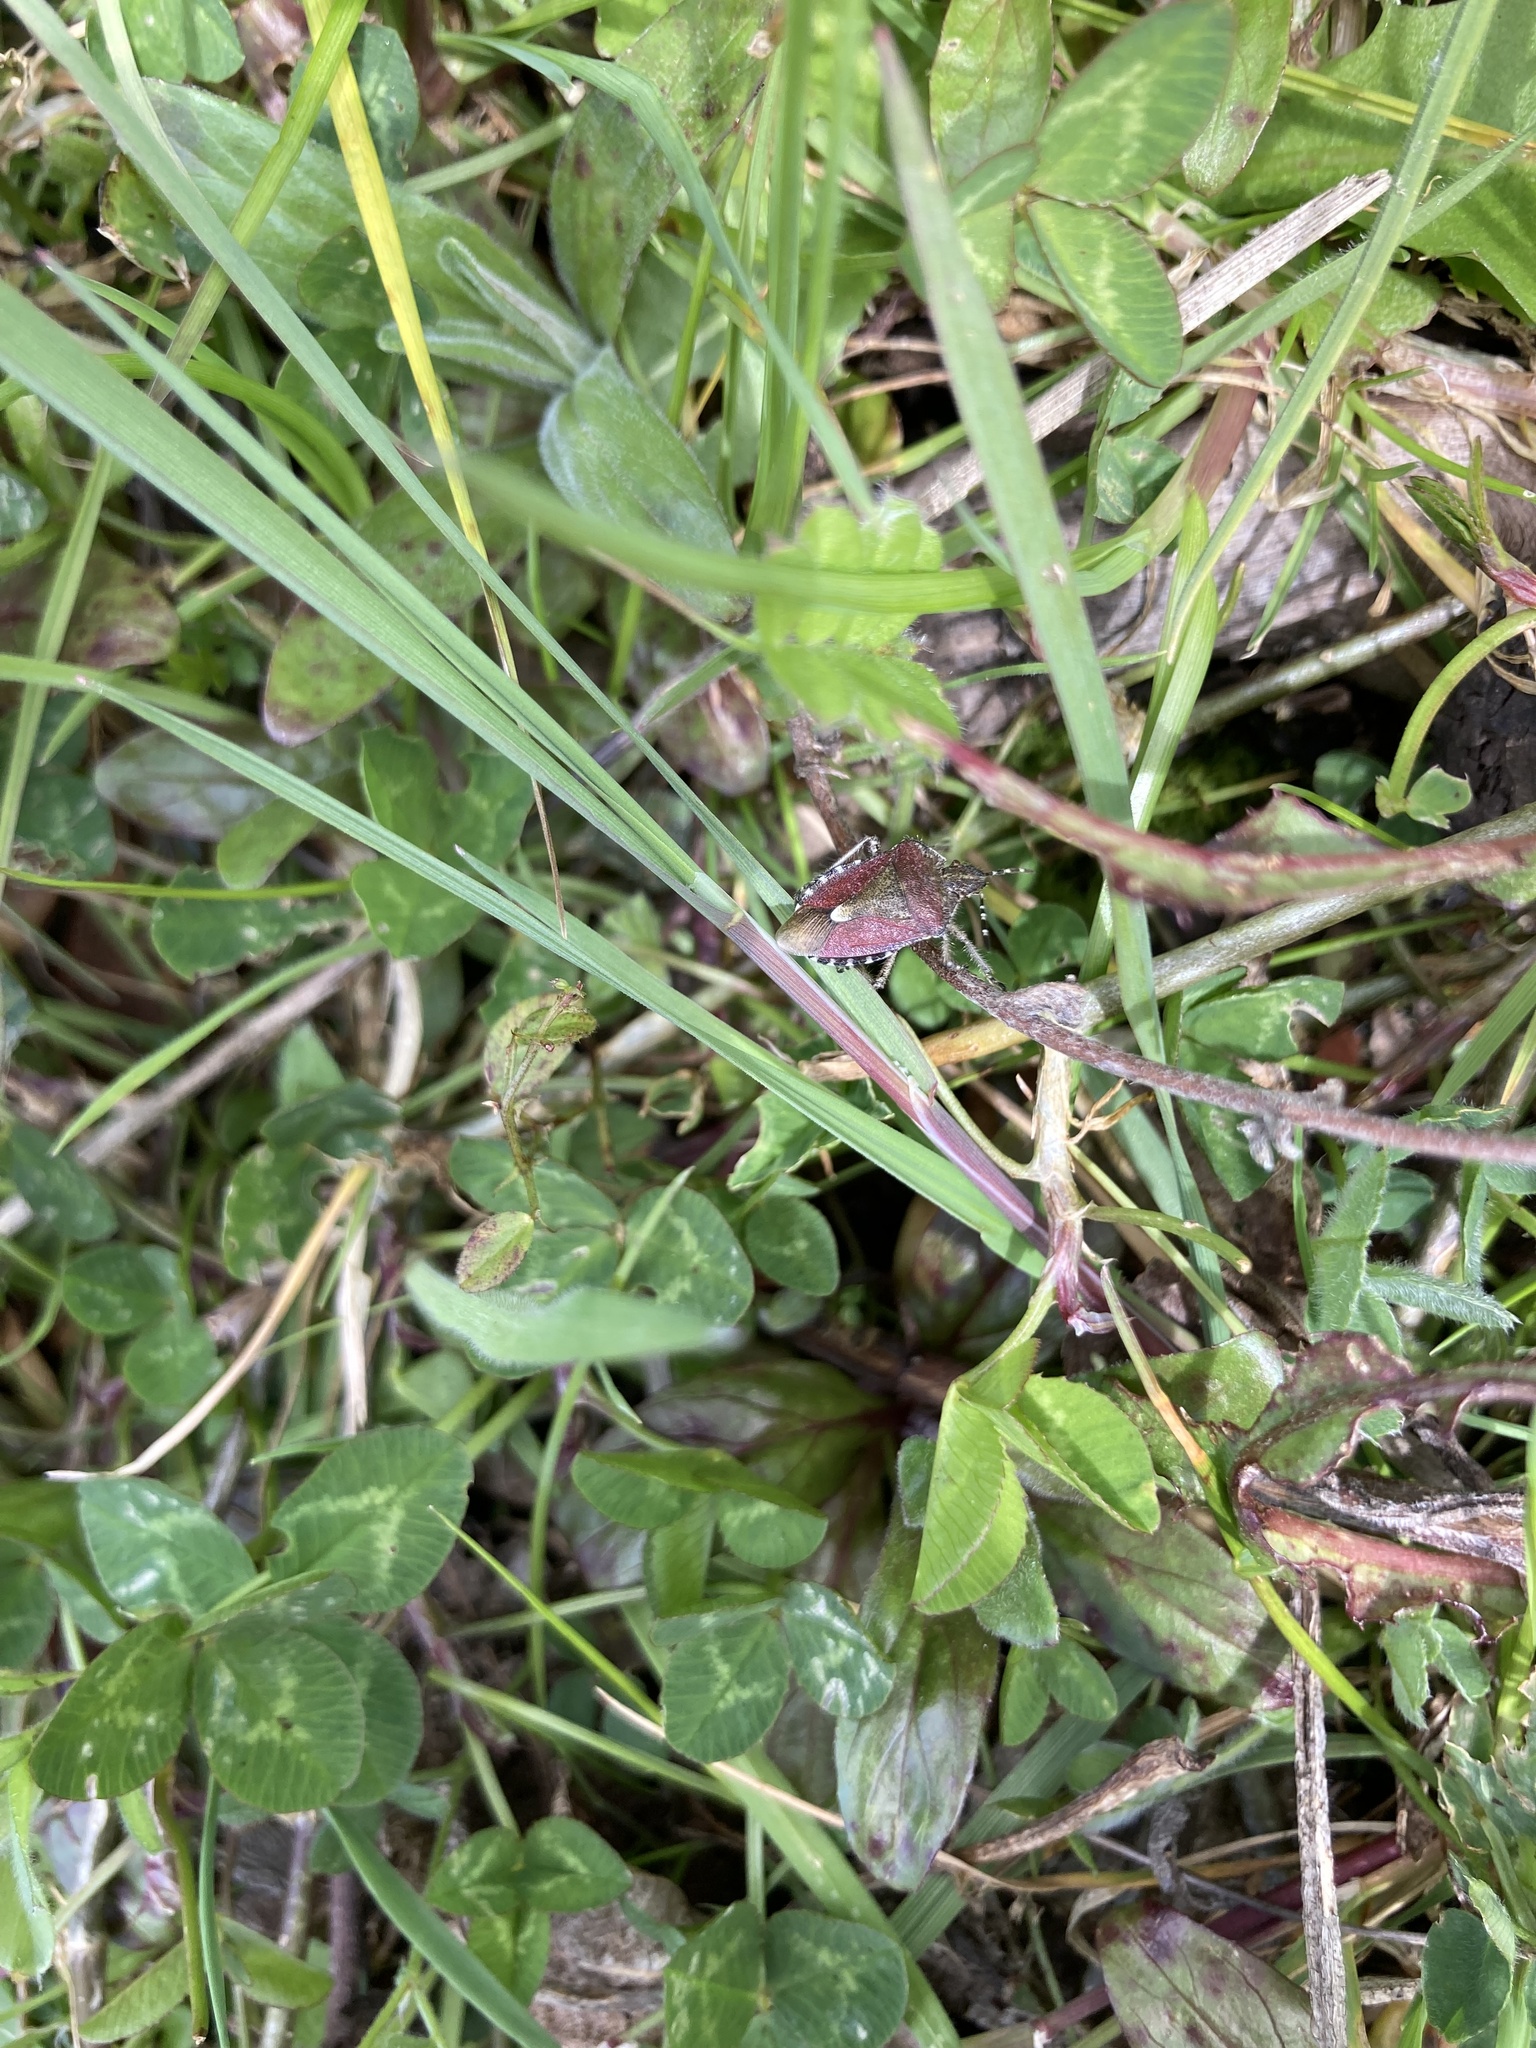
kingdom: Animalia
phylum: Arthropoda
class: Insecta
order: Hemiptera
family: Pentatomidae
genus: Dolycoris
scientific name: Dolycoris baccarum
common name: Sloe bug
